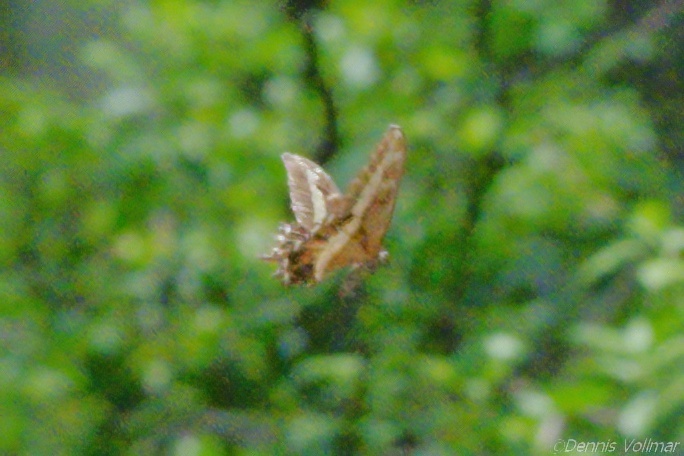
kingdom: Animalia
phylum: Arthropoda
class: Insecta
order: Lepidoptera
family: Papilionidae
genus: Papilio
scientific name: Papilio andraemon
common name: Bahaman swallowtail
